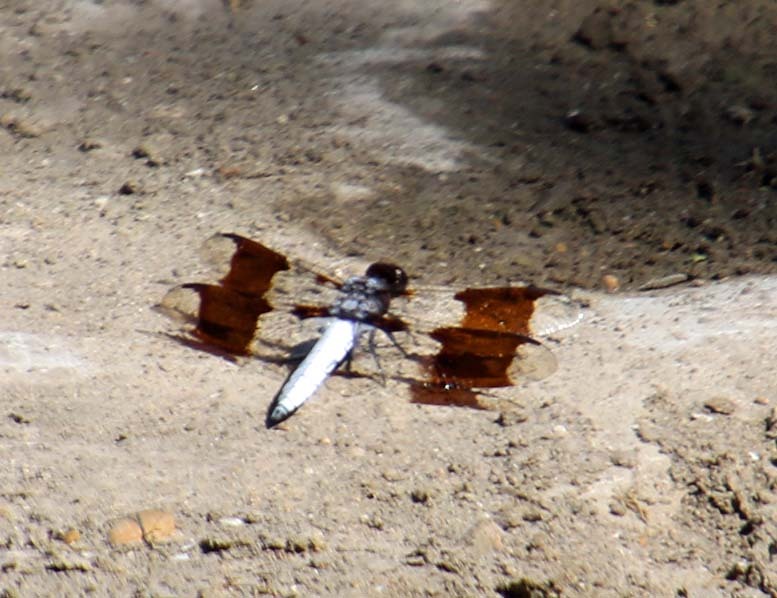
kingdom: Animalia
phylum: Arthropoda
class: Insecta
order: Odonata
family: Libellulidae
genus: Plathemis
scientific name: Plathemis lydia
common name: Common whitetail
